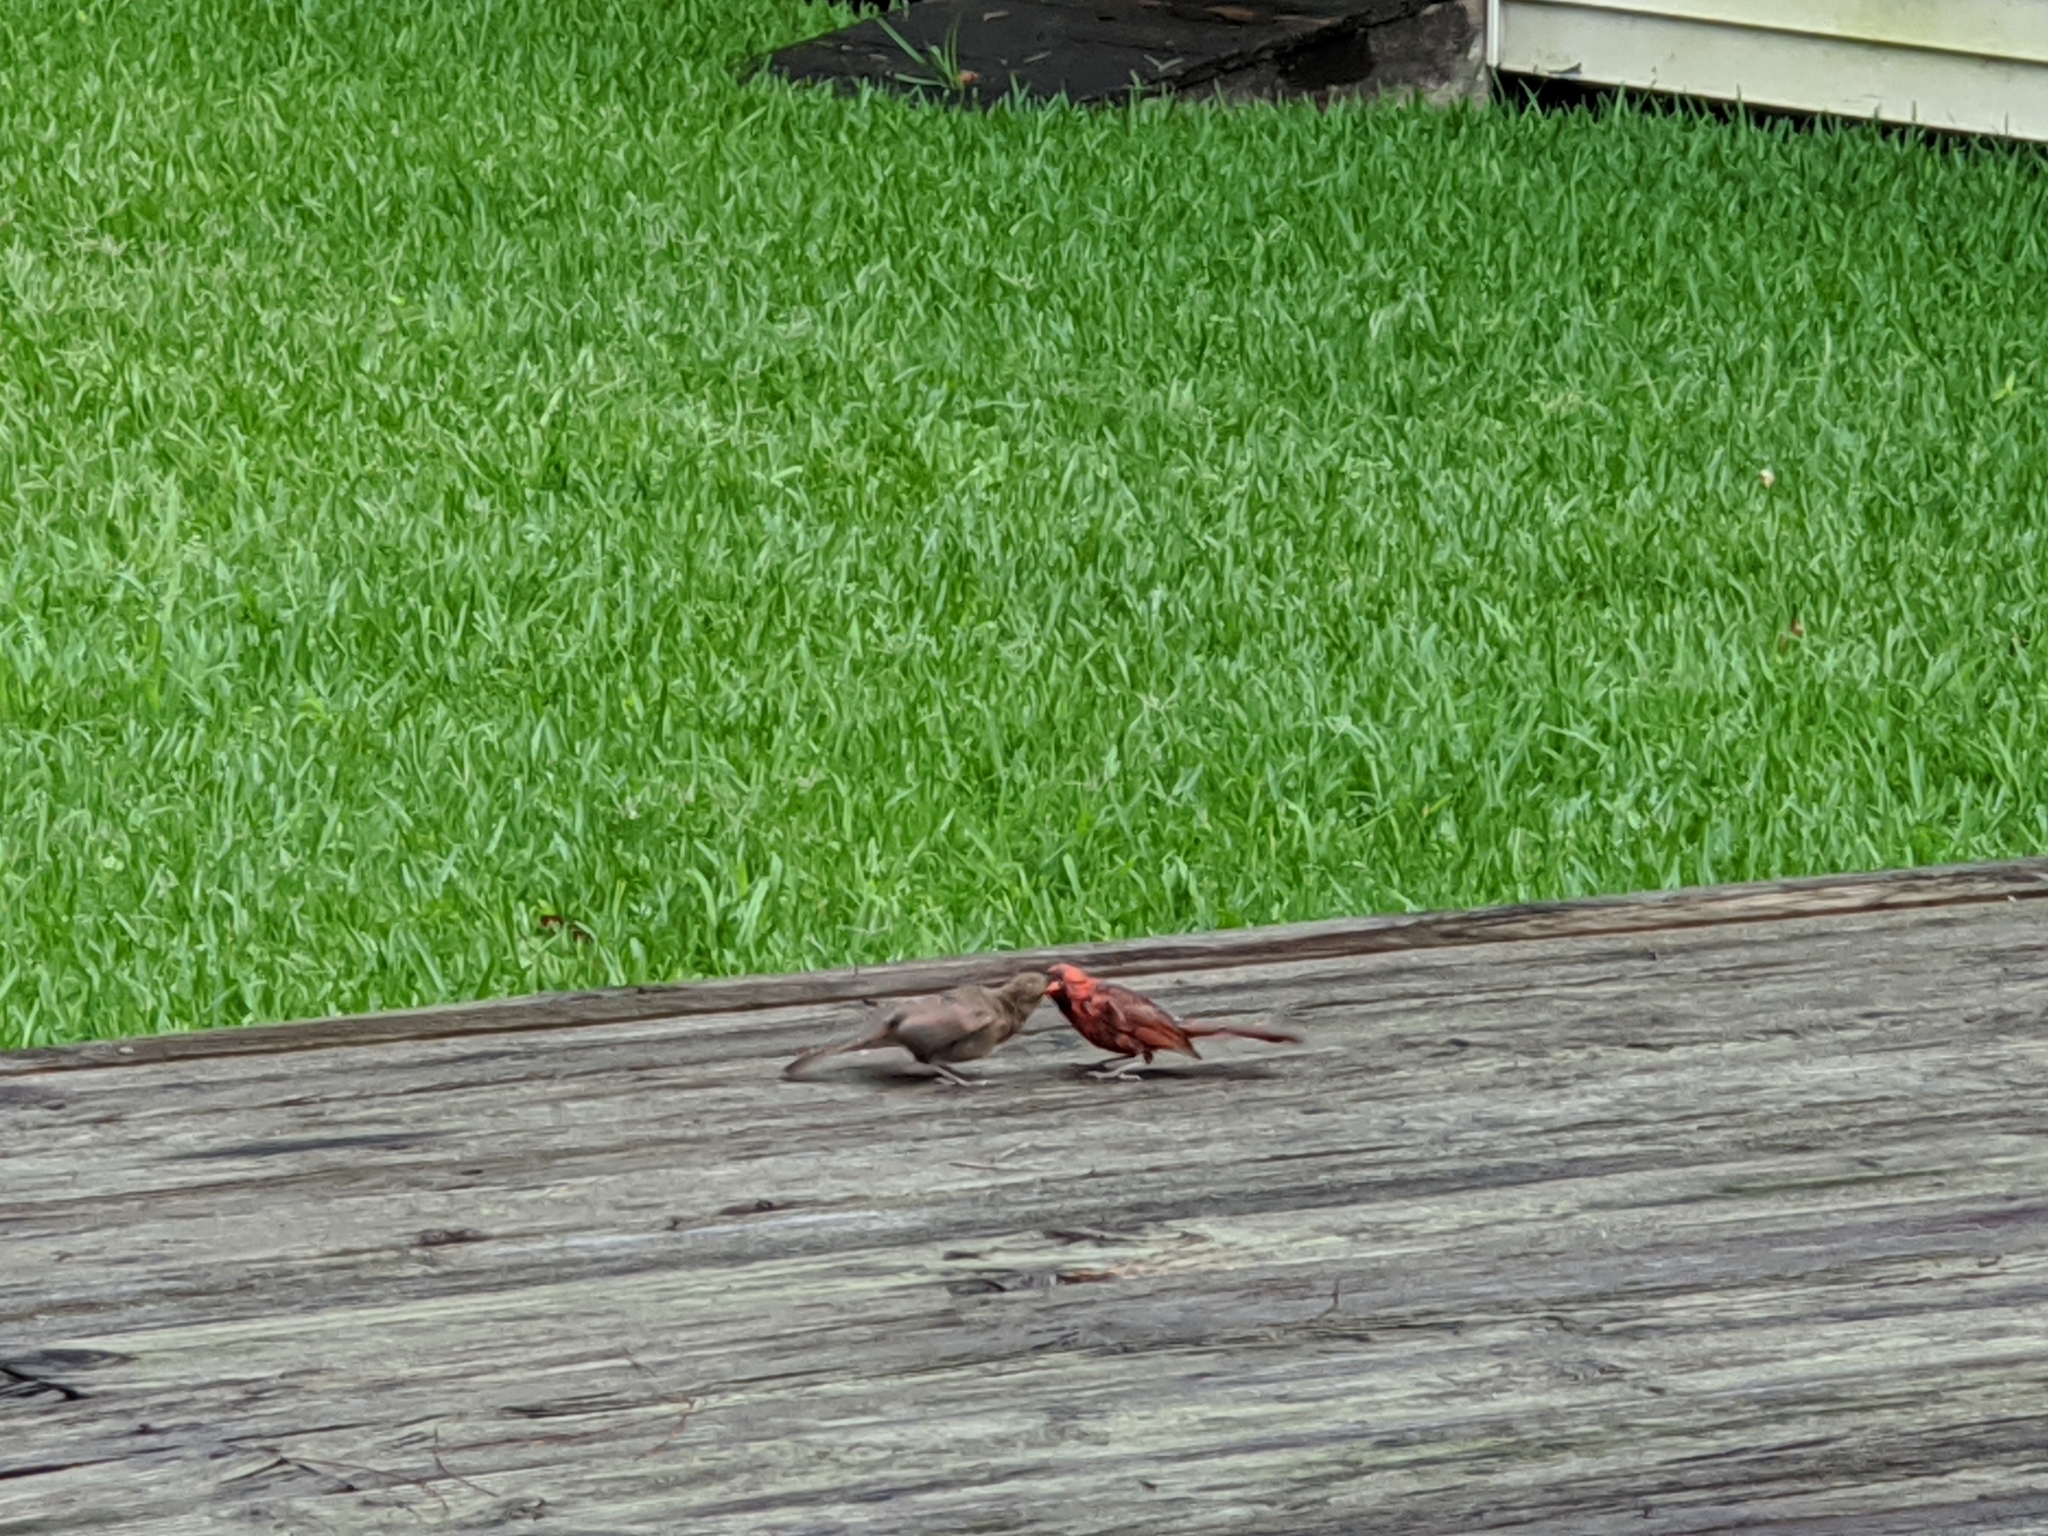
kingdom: Animalia
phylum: Chordata
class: Aves
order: Passeriformes
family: Cardinalidae
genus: Cardinalis
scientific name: Cardinalis cardinalis
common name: Northern cardinal
